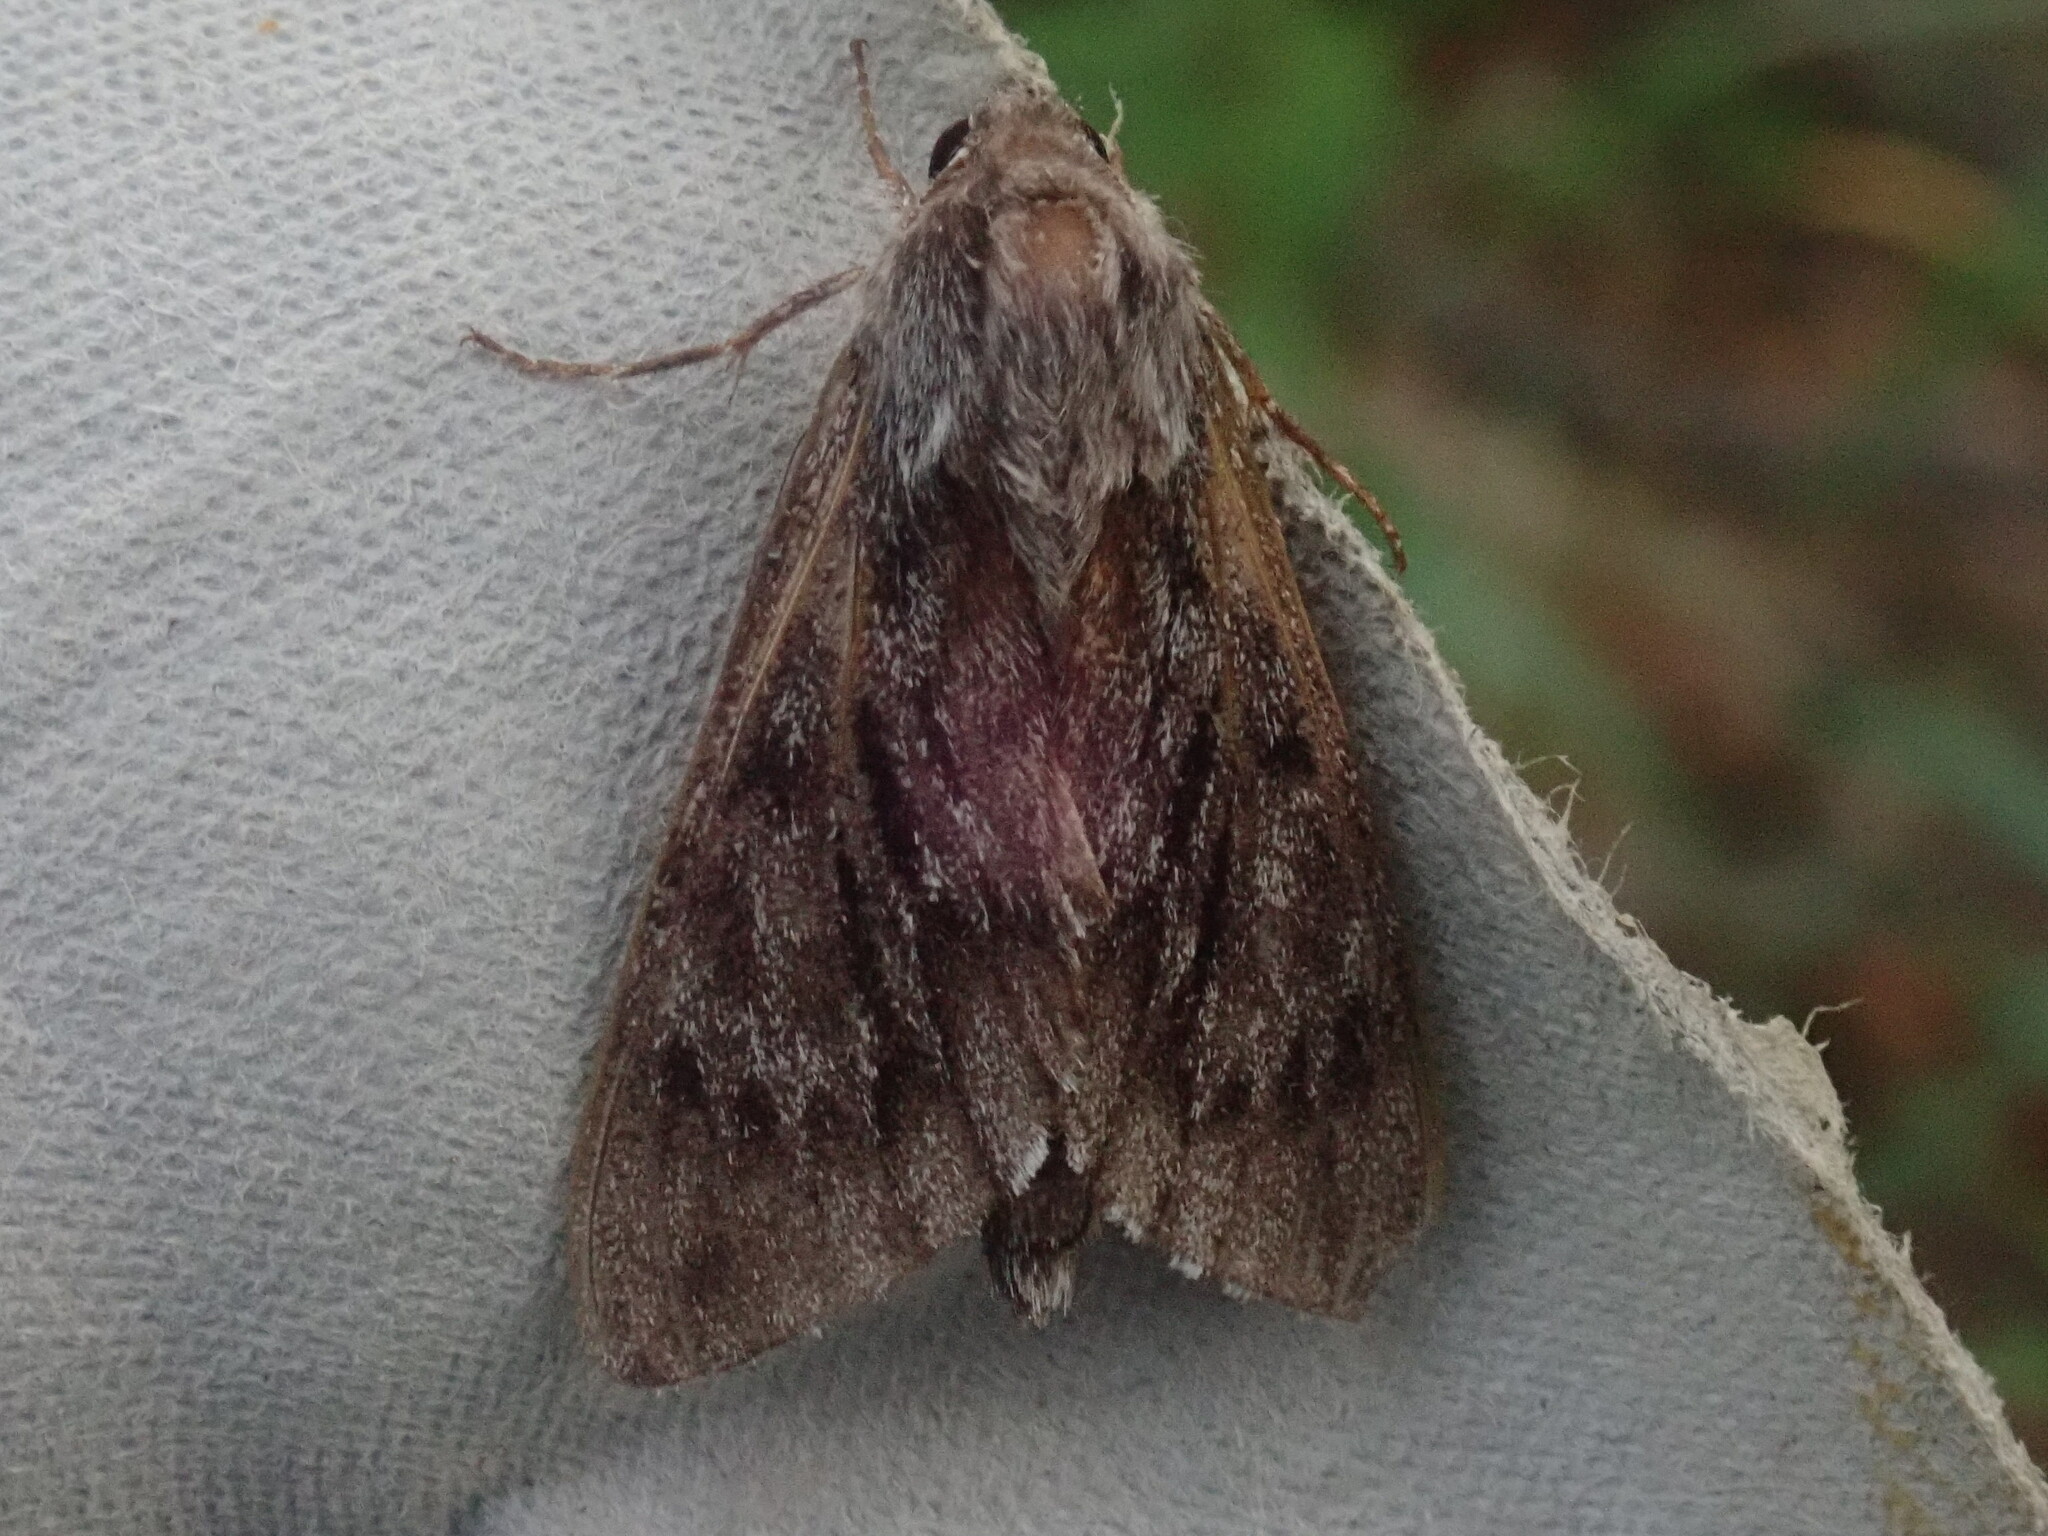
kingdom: Animalia
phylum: Arthropoda
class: Insecta
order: Lepidoptera
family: Sphingidae
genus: Lapara
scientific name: Lapara bombycoides
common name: Northern pine sphinx
